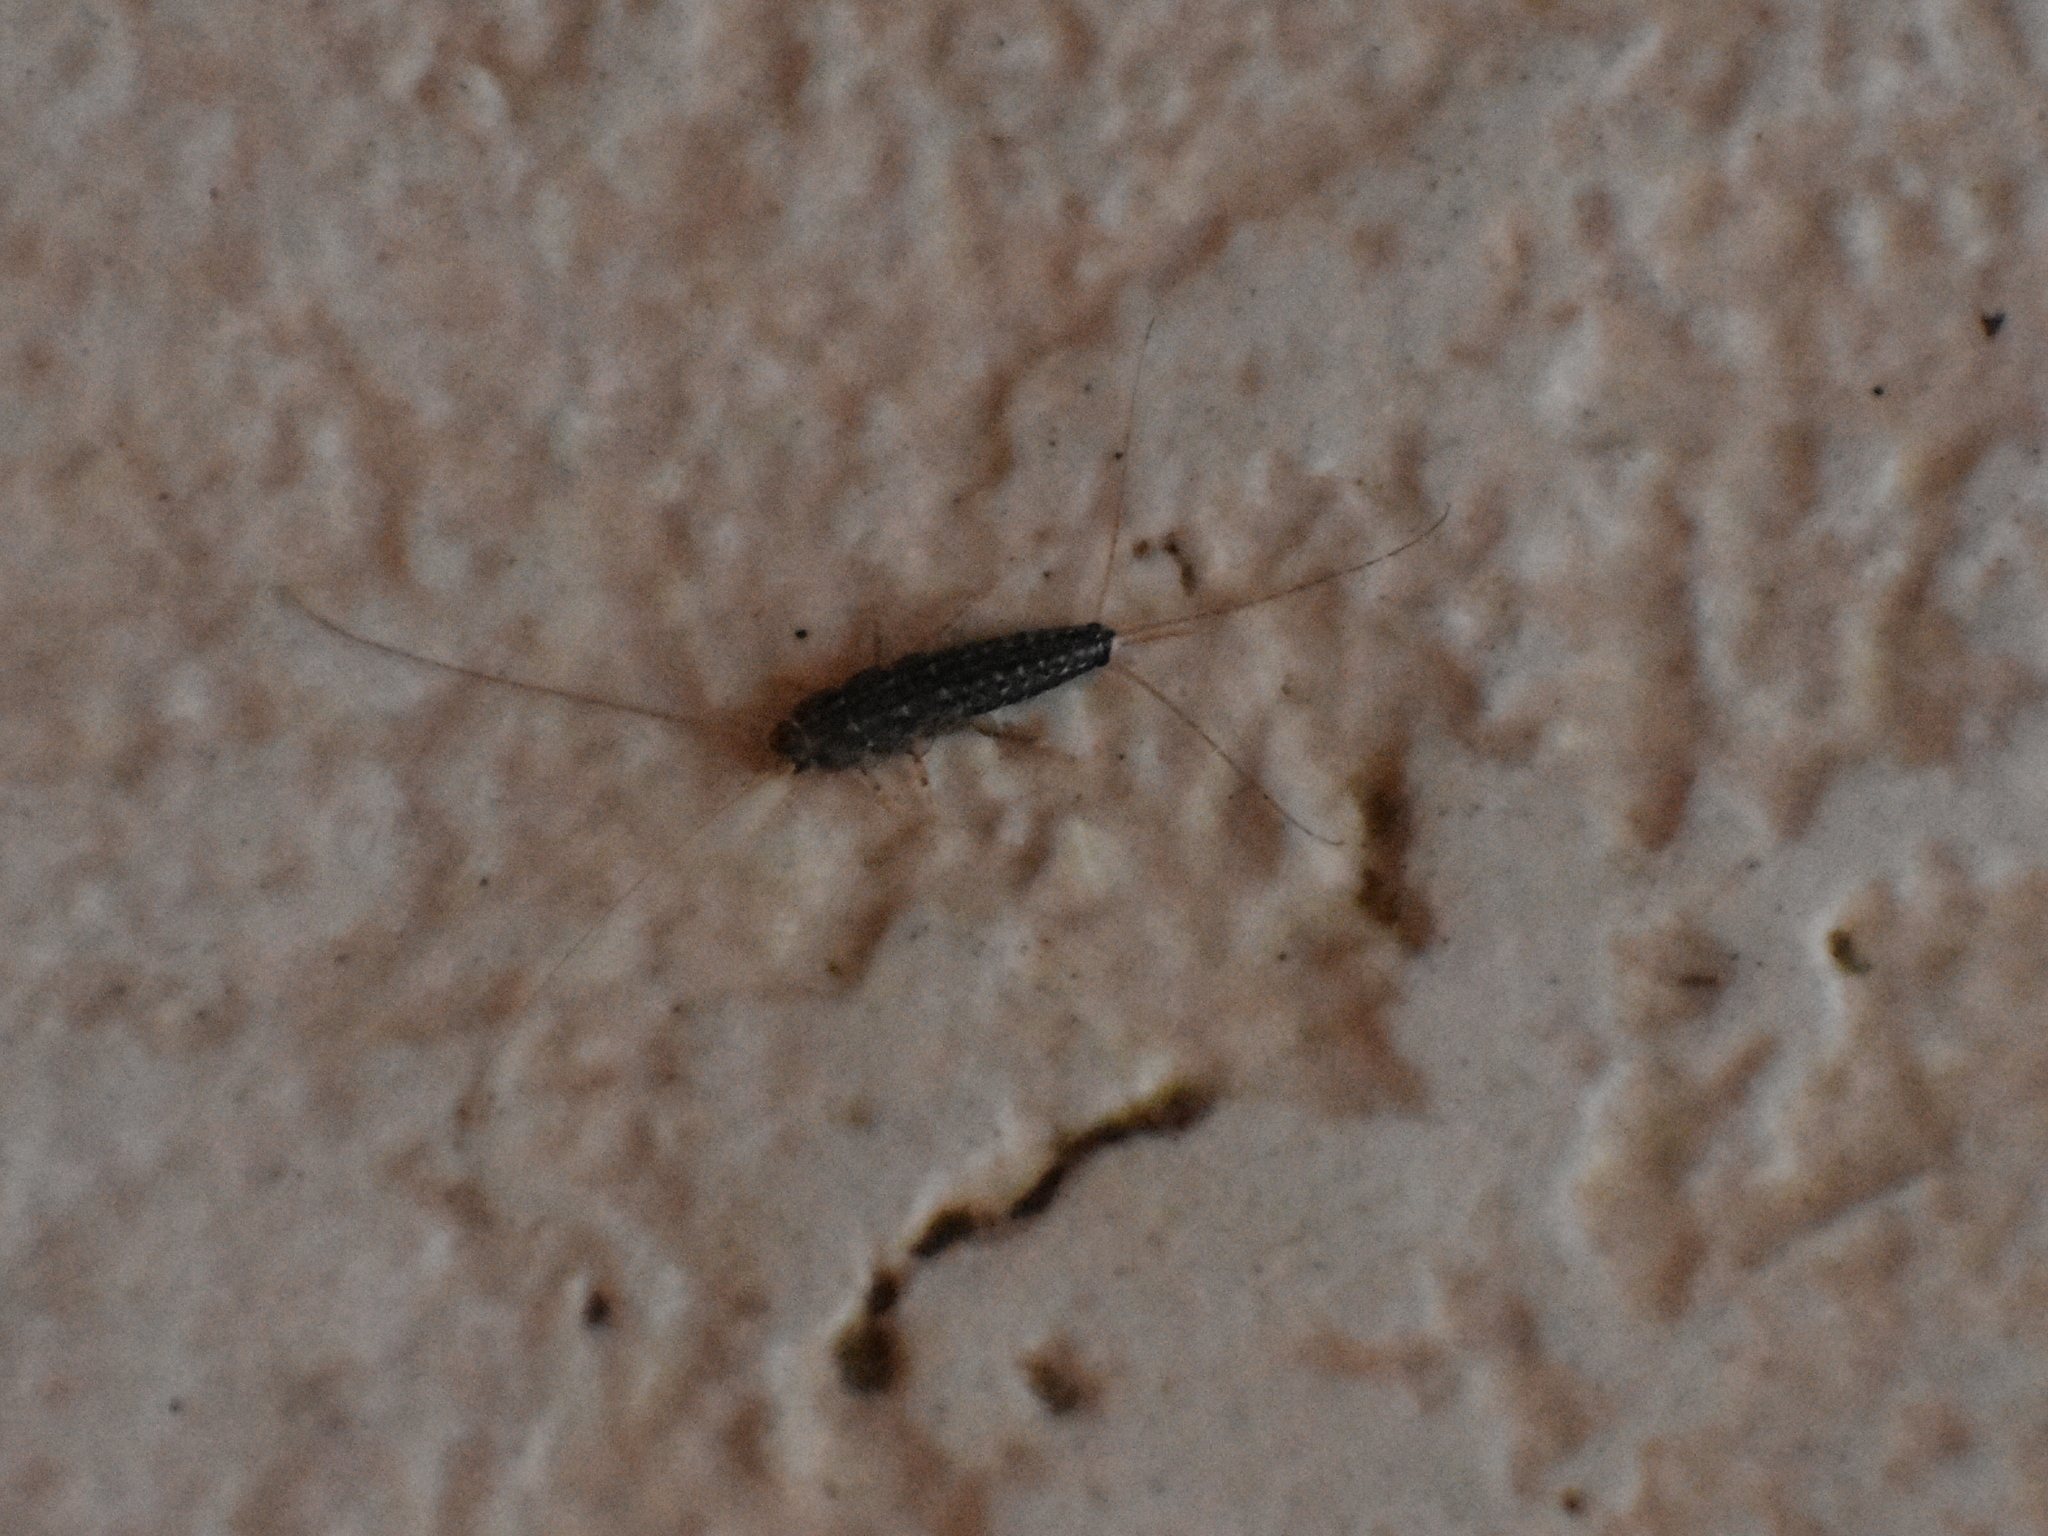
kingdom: Animalia
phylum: Arthropoda
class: Insecta
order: Zygentoma
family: Lepismatidae
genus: Ctenolepisma
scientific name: Ctenolepisma lineata
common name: Four-lined silverfish
